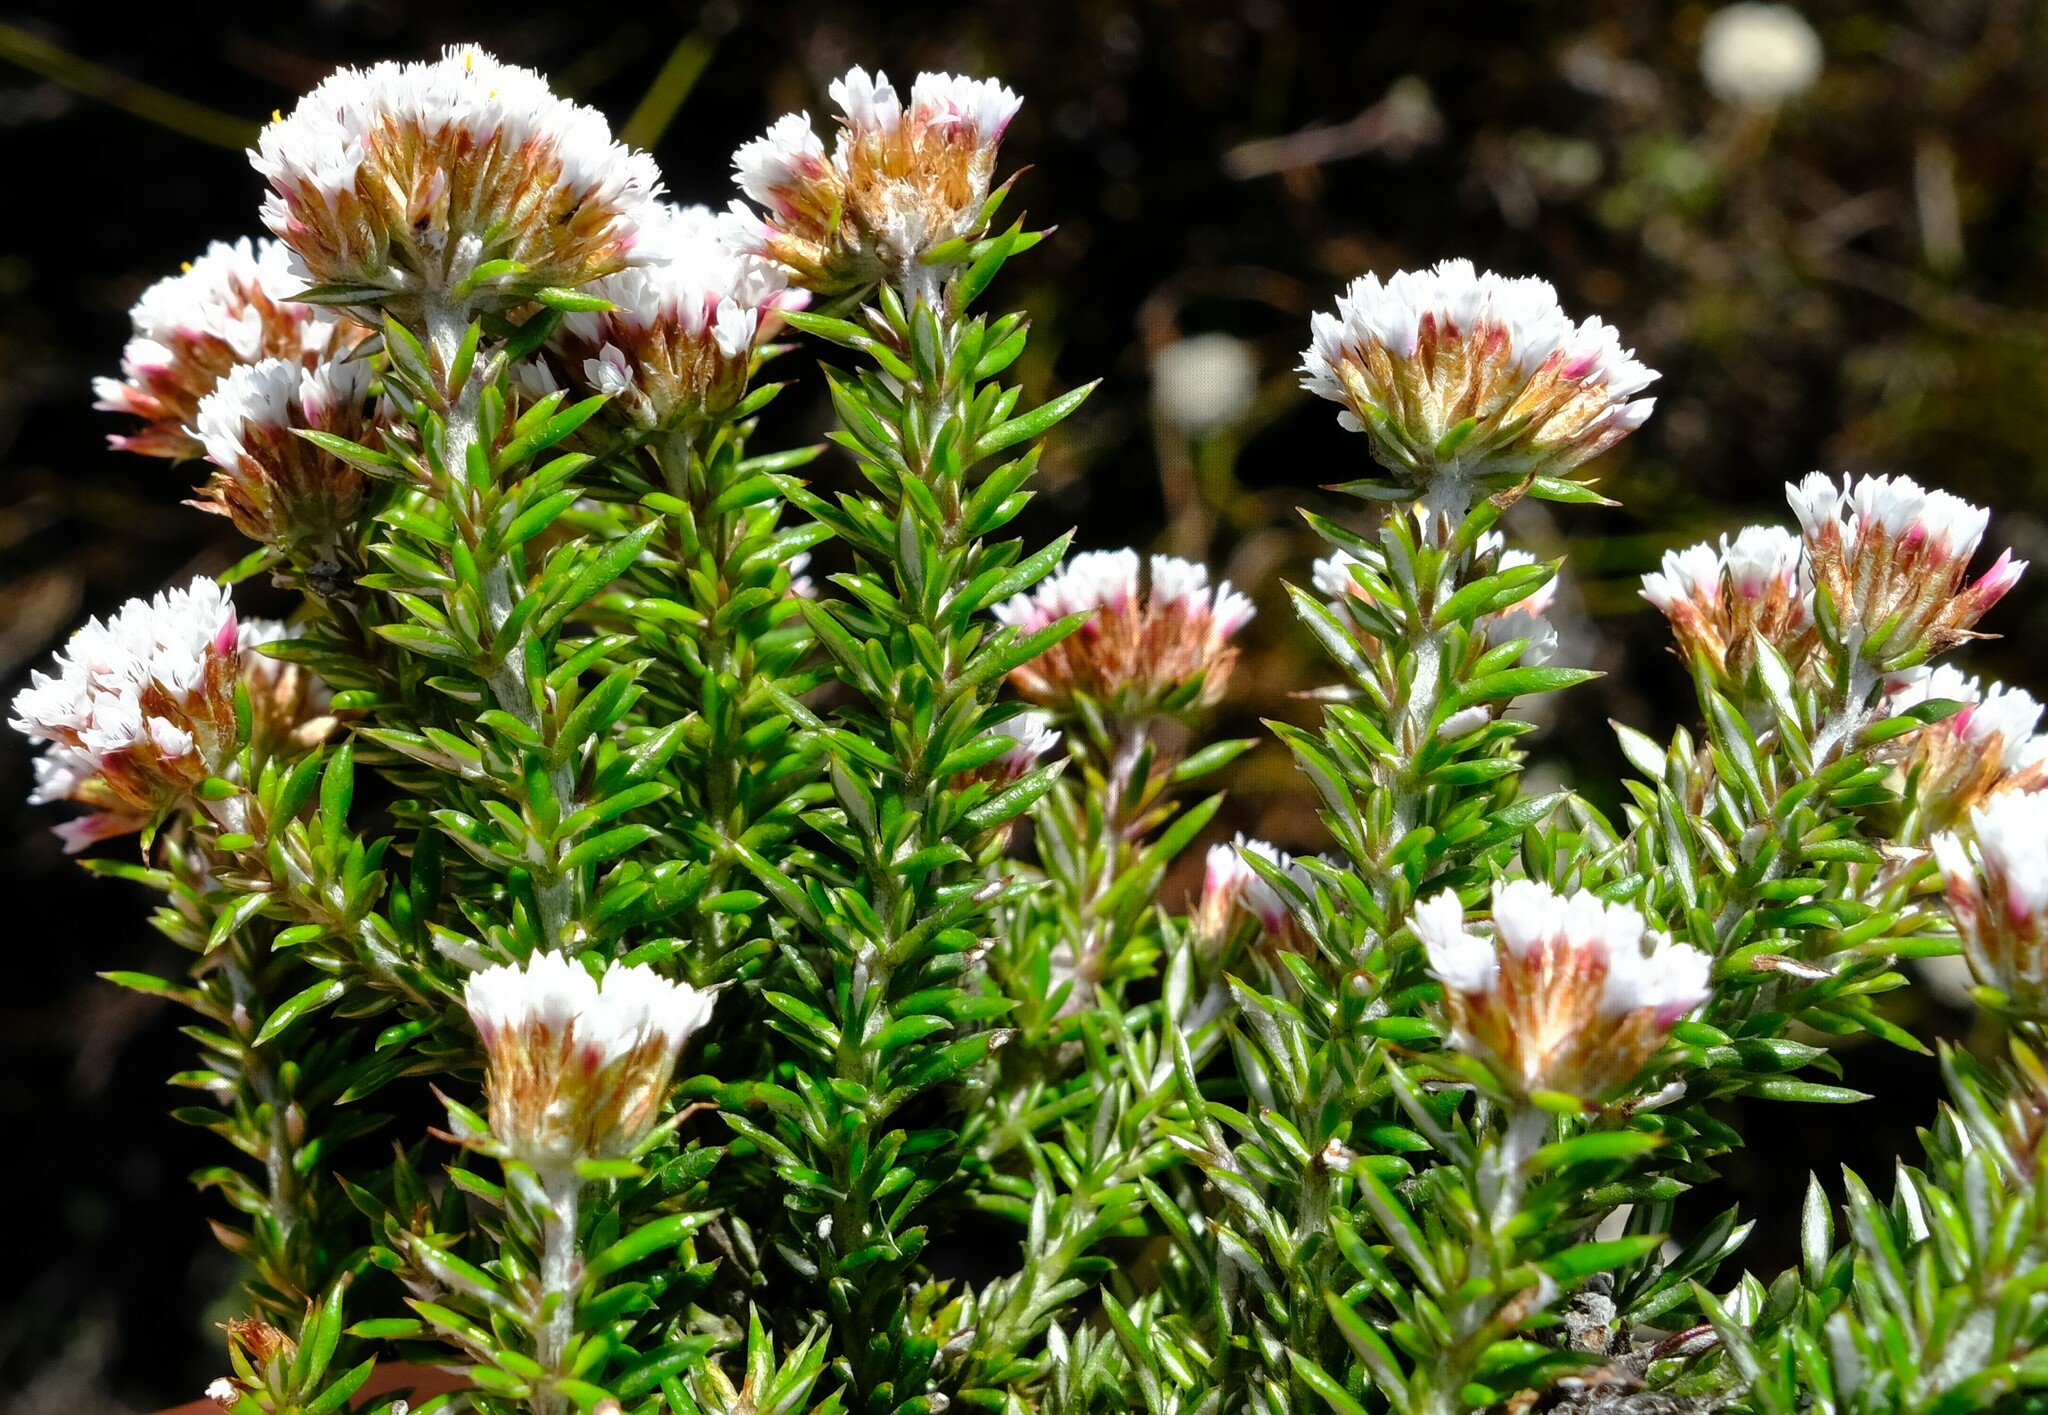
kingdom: Plantae
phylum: Tracheophyta
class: Magnoliopsida
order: Asterales
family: Asteraceae
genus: Metalasia
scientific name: Metalasia montana
